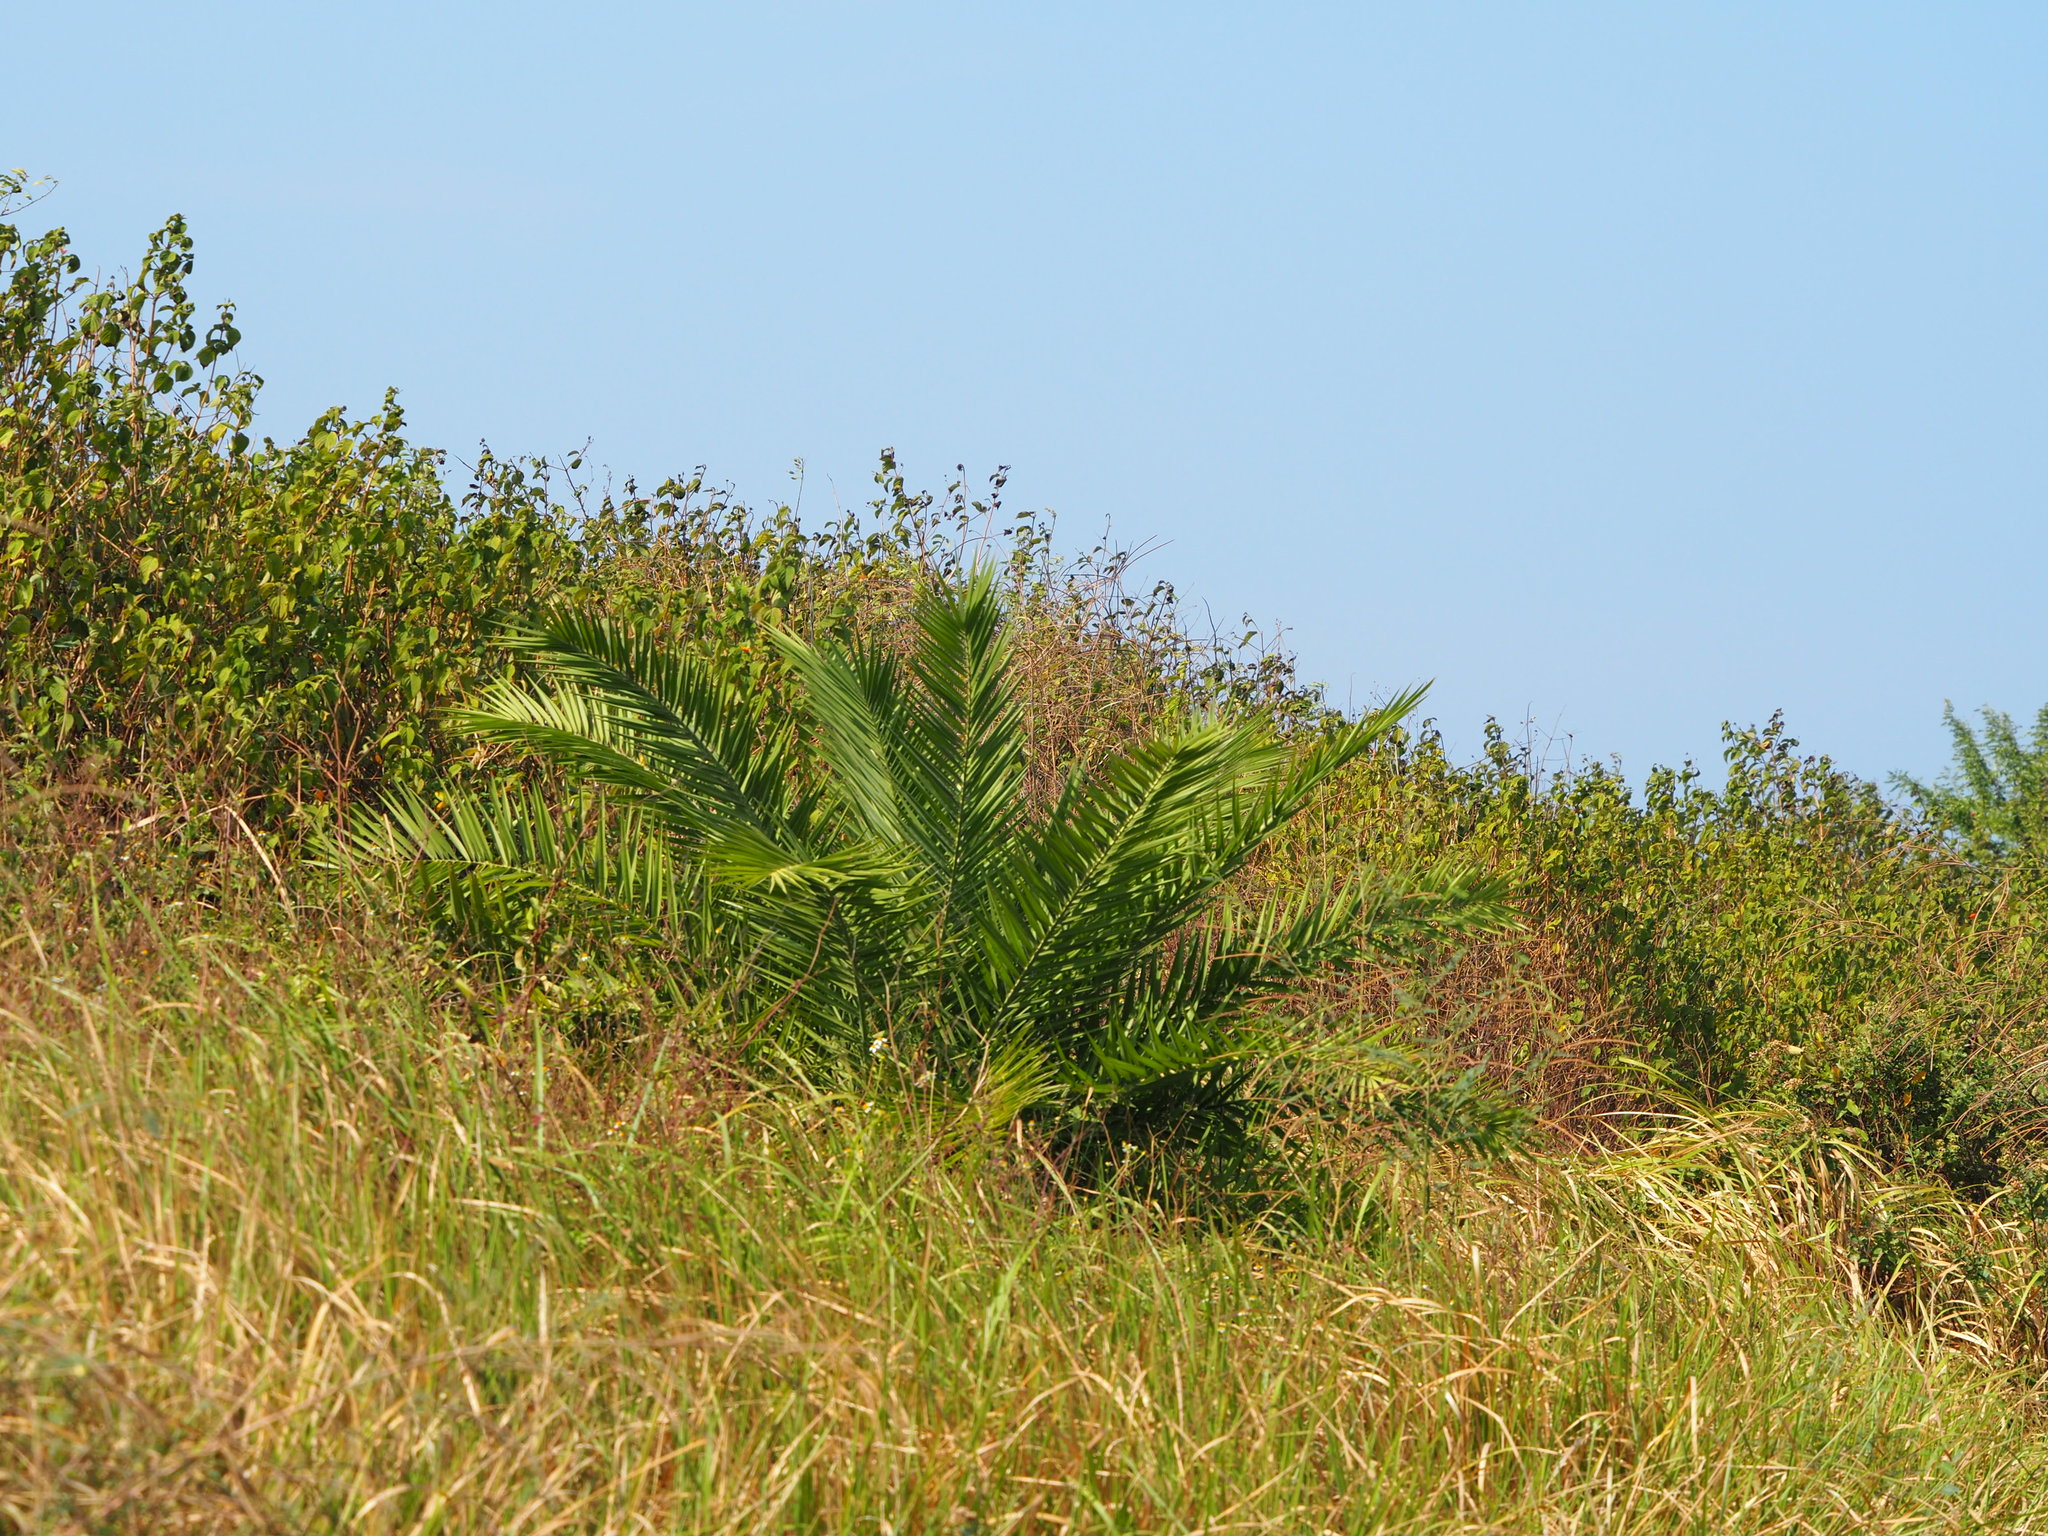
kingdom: Plantae
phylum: Tracheophyta
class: Liliopsida
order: Arecales
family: Arecaceae
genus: Phoenix
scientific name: Phoenix loureiroi
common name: Loureiro's palm
